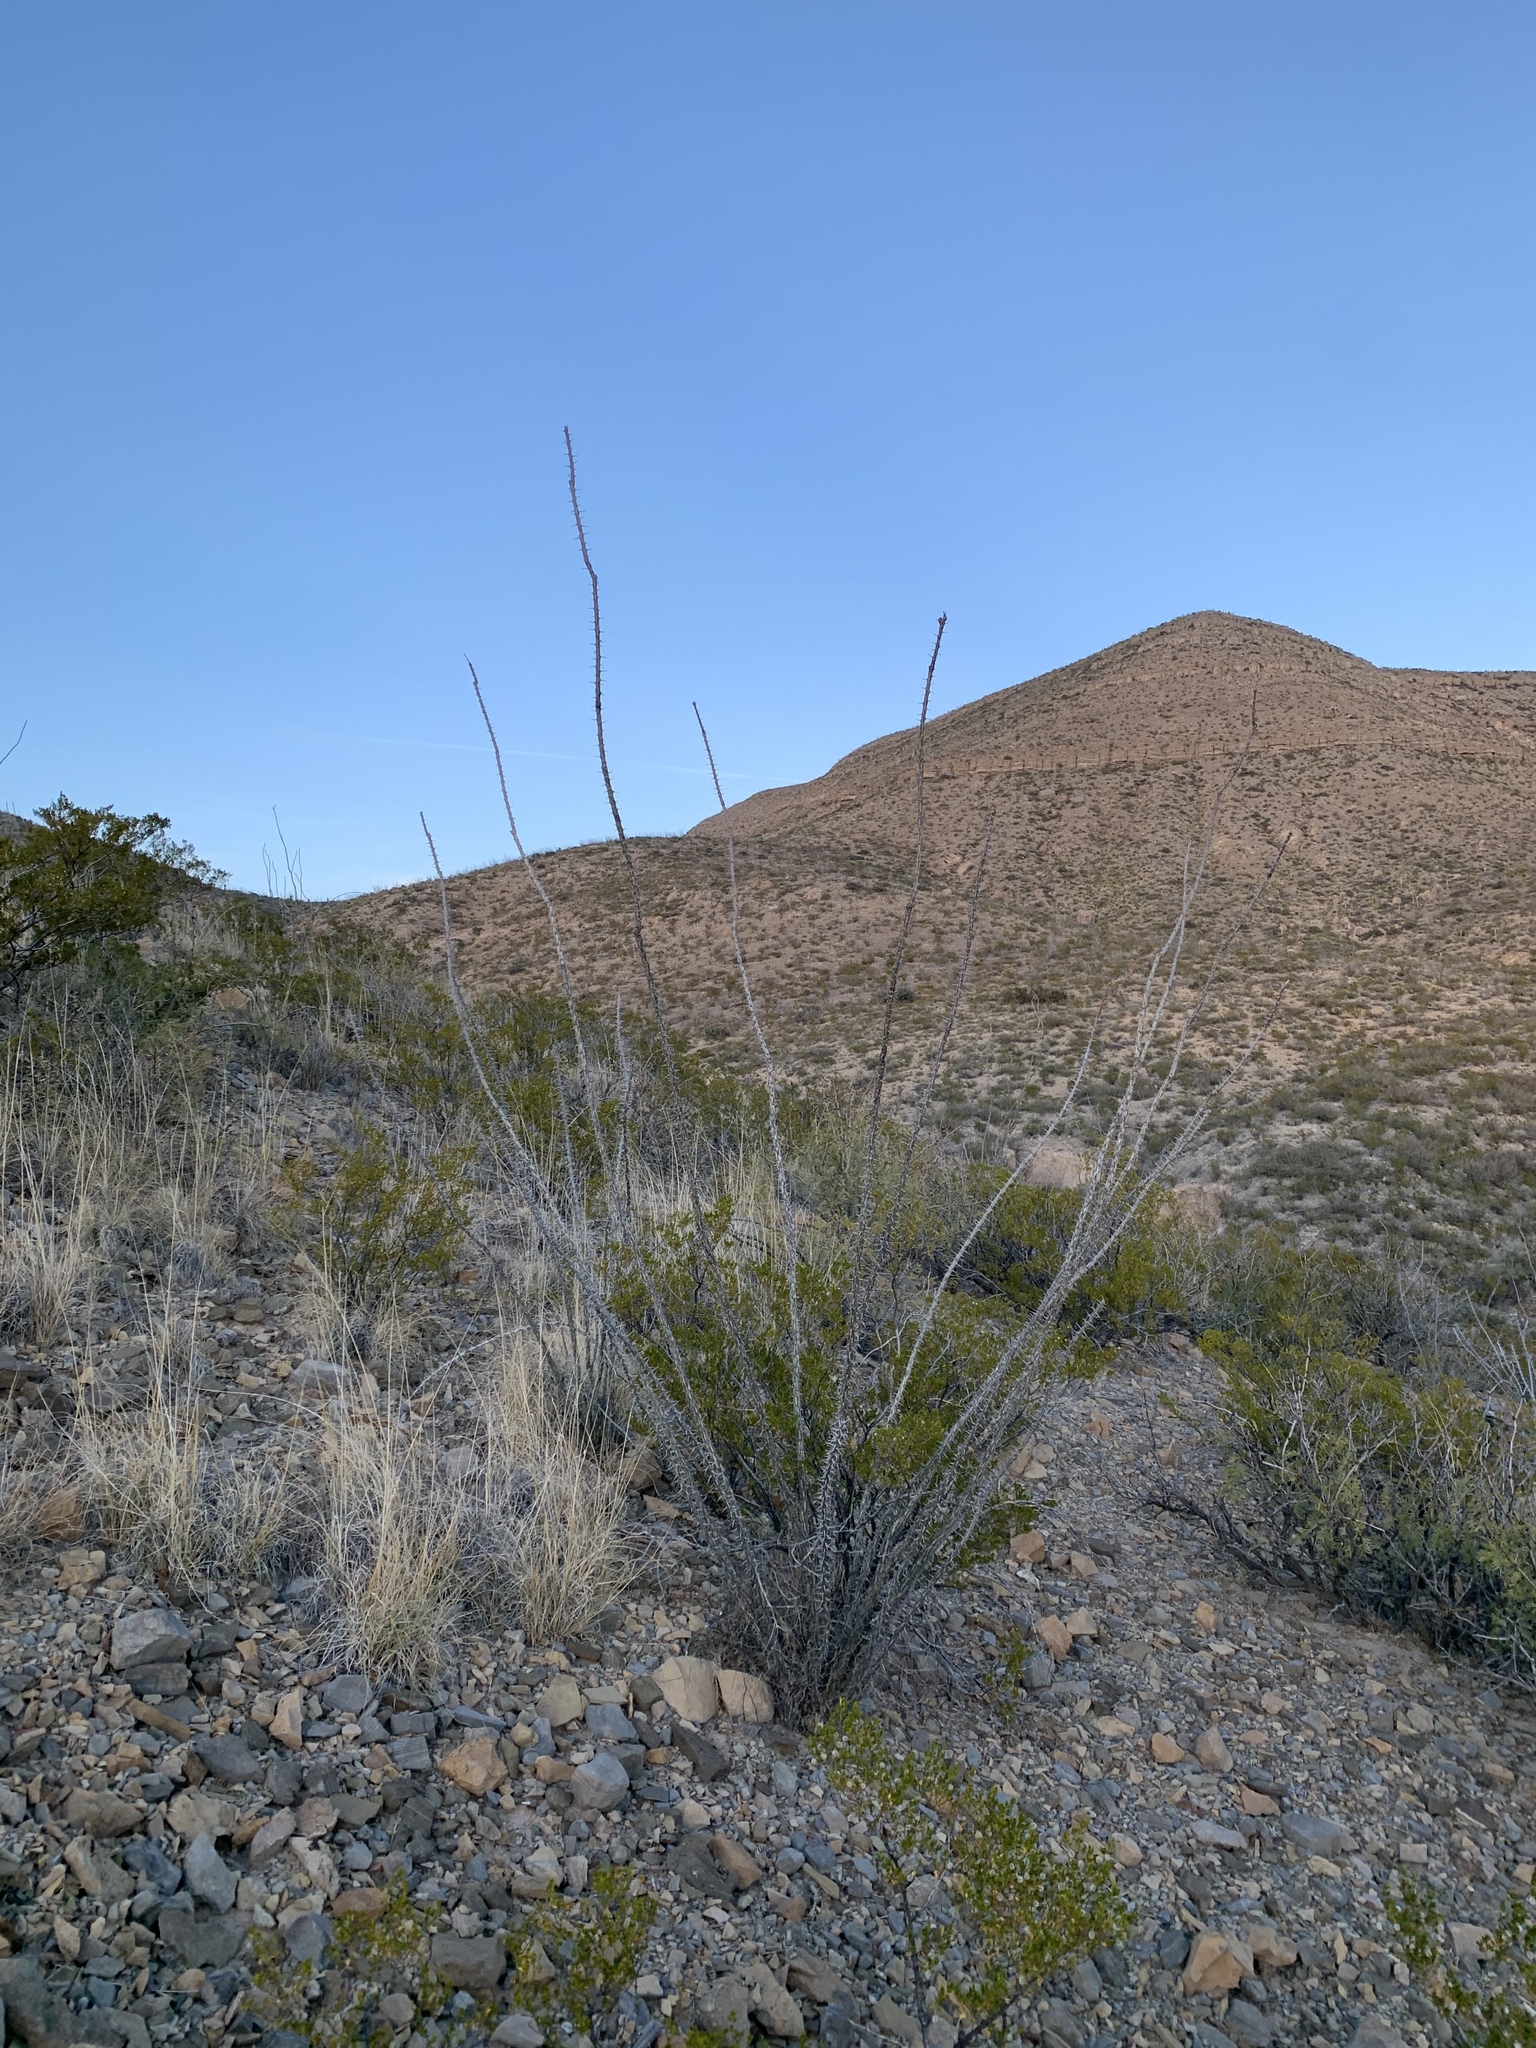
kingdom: Plantae
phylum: Tracheophyta
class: Magnoliopsida
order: Ericales
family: Fouquieriaceae
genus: Fouquieria
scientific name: Fouquieria splendens
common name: Vine-cactus
